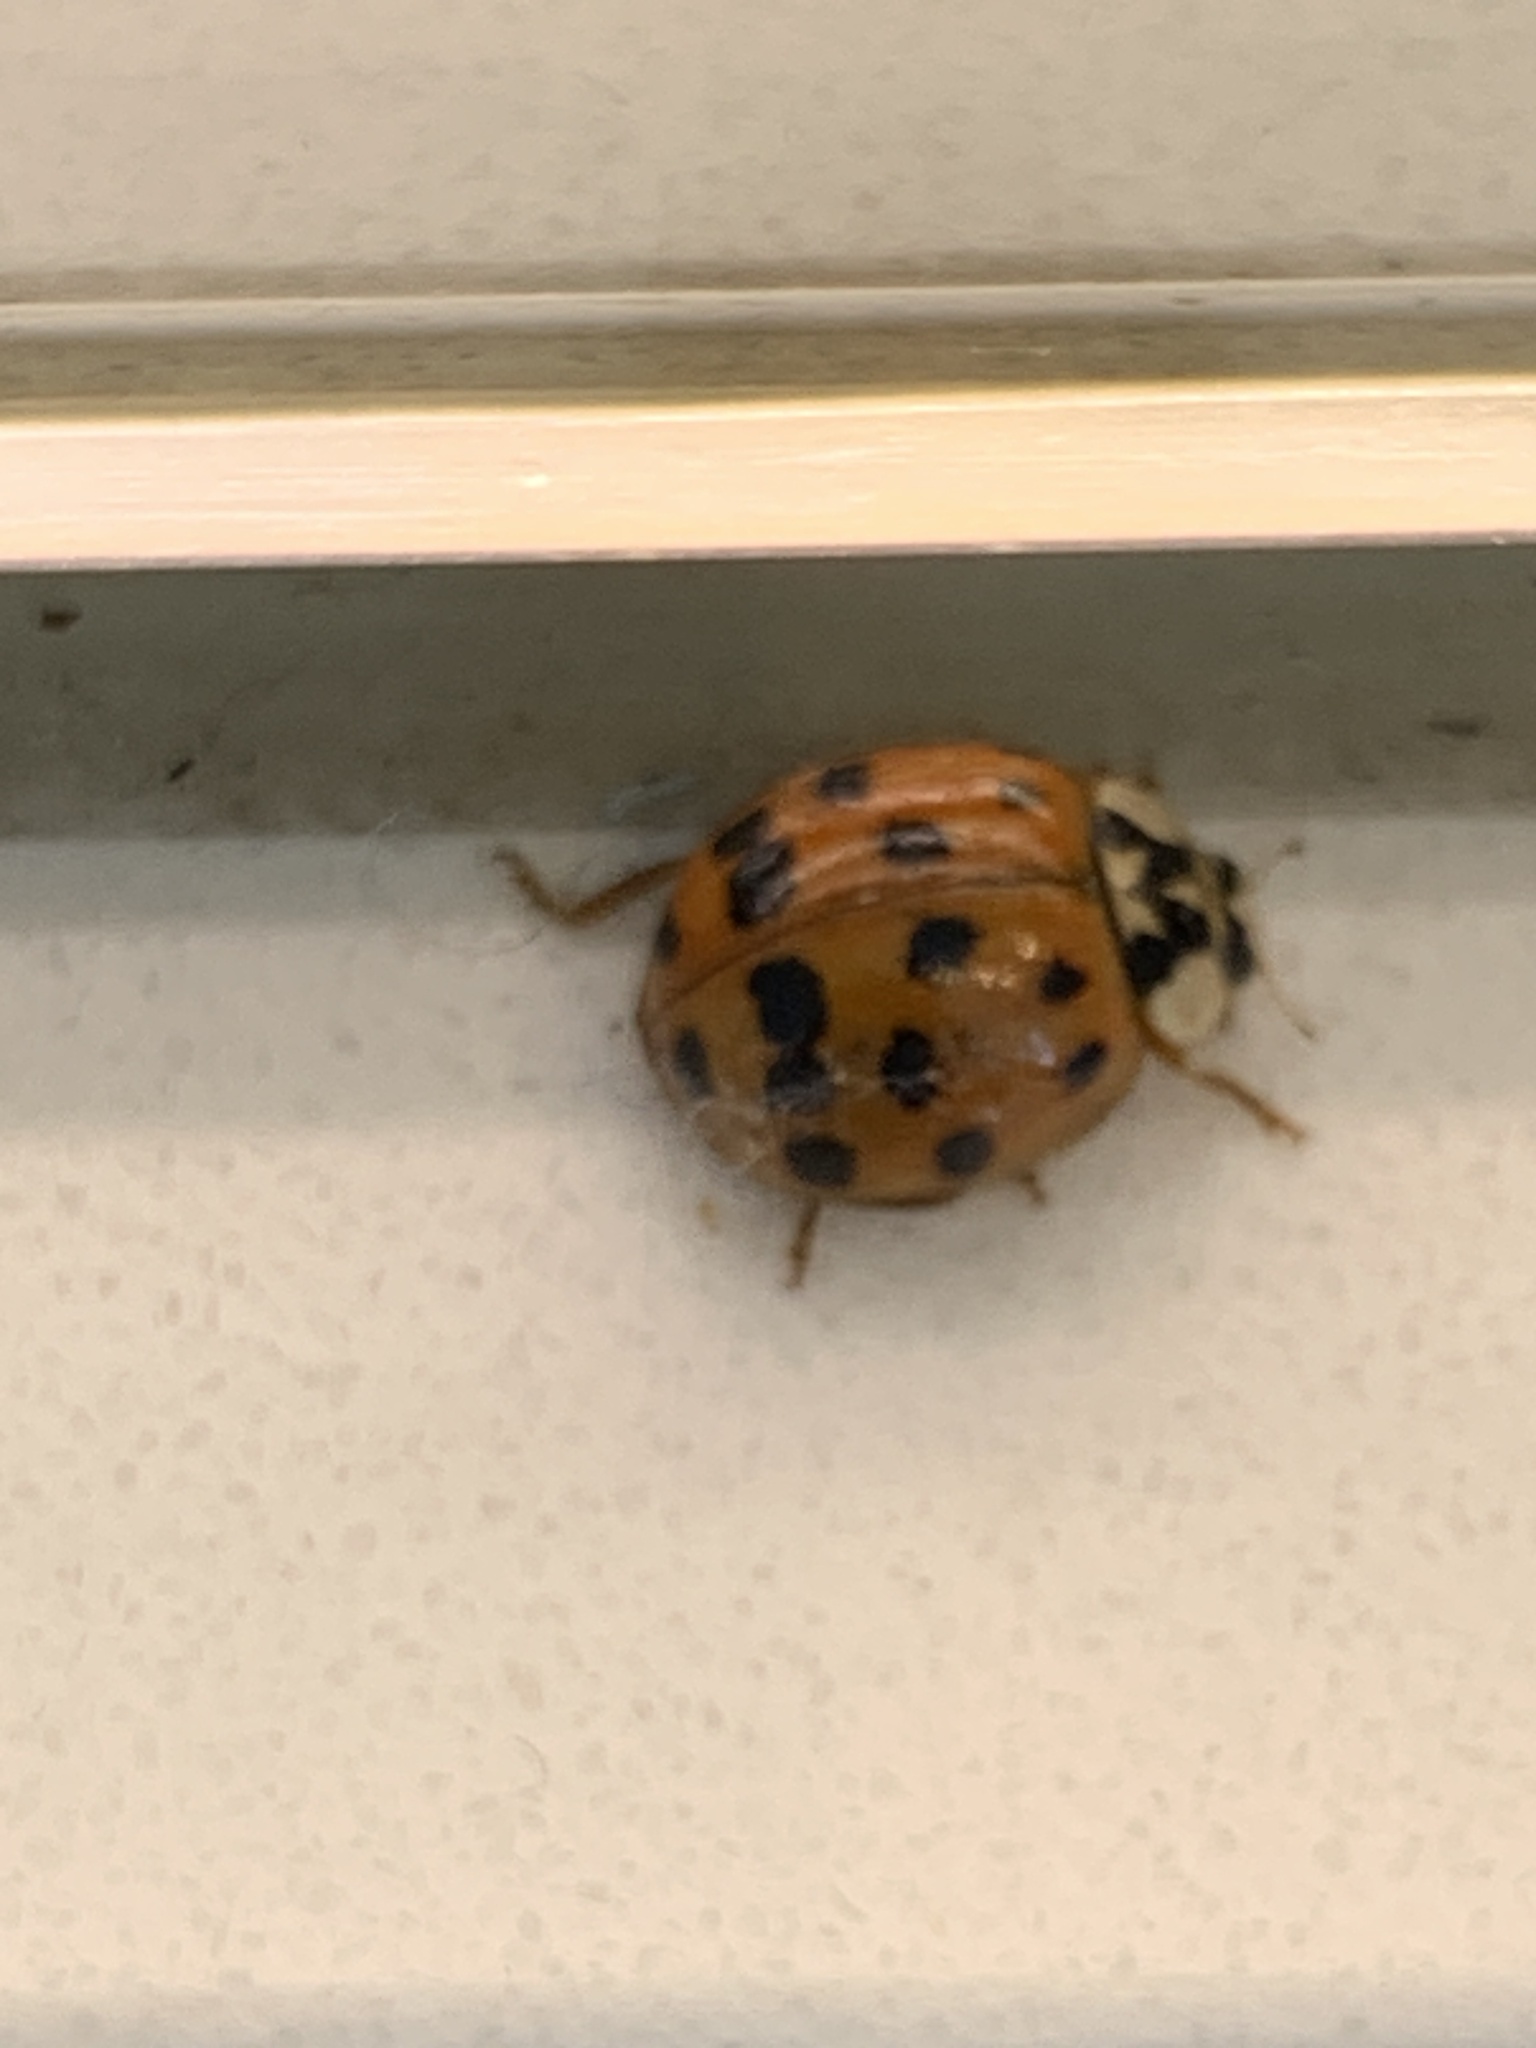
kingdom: Animalia
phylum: Arthropoda
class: Insecta
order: Coleoptera
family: Coccinellidae
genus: Harmonia
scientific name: Harmonia axyridis
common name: Harlequin ladybird
